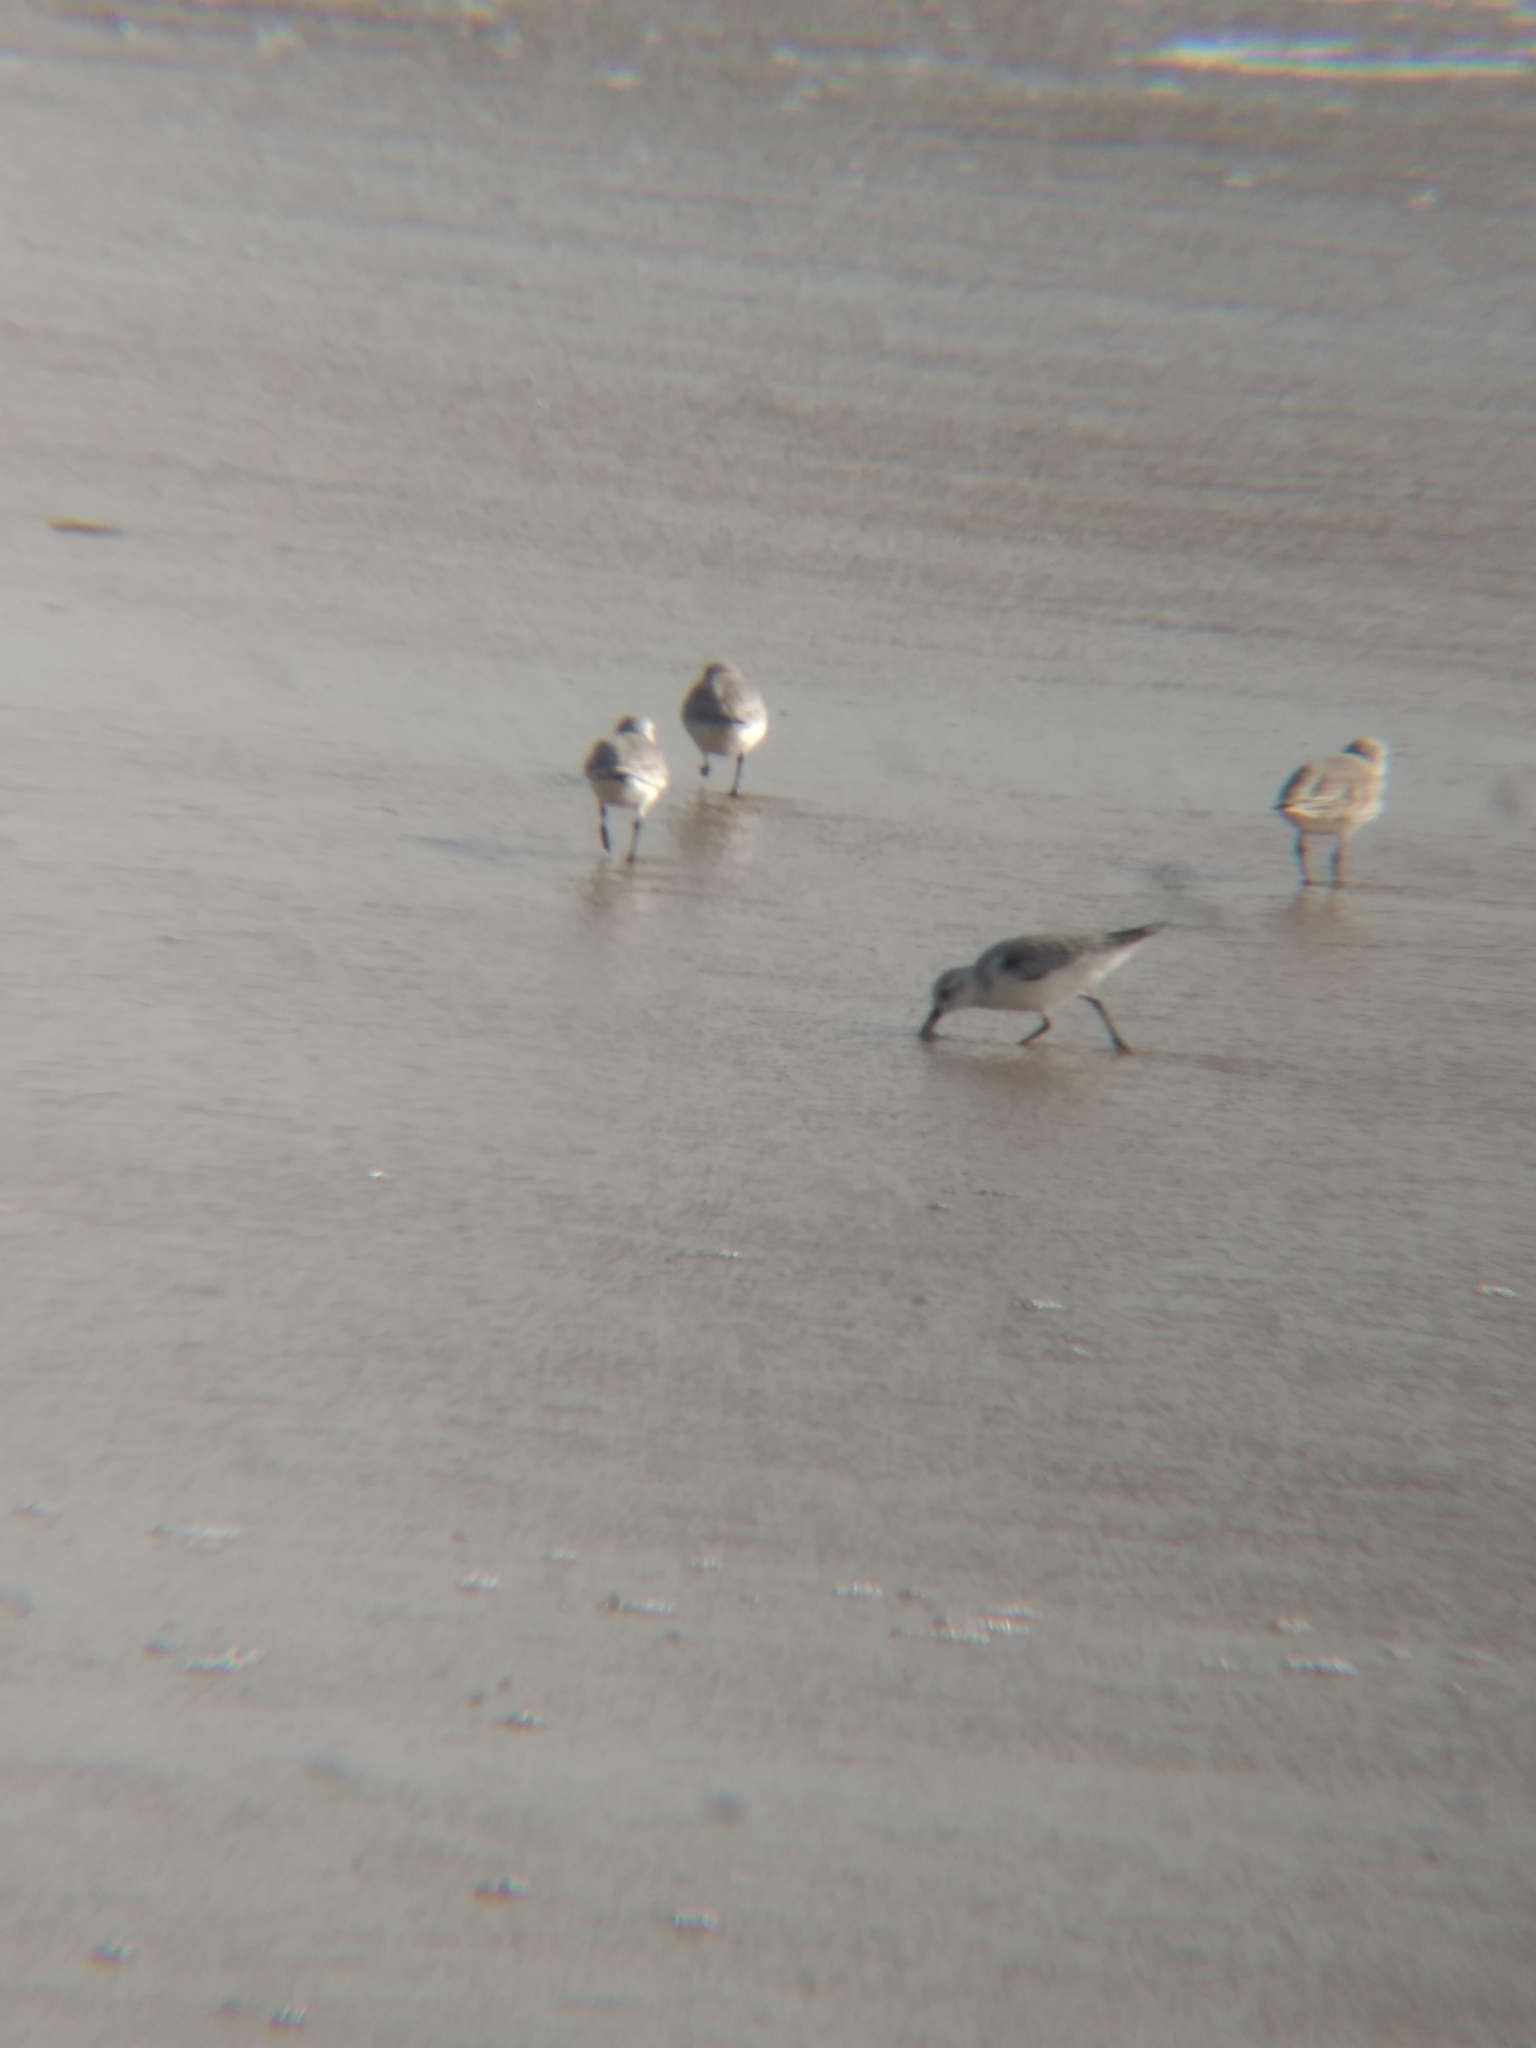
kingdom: Animalia
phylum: Chordata
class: Aves
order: Charadriiformes
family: Scolopacidae
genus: Calidris
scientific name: Calidris alba
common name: Sanderling
